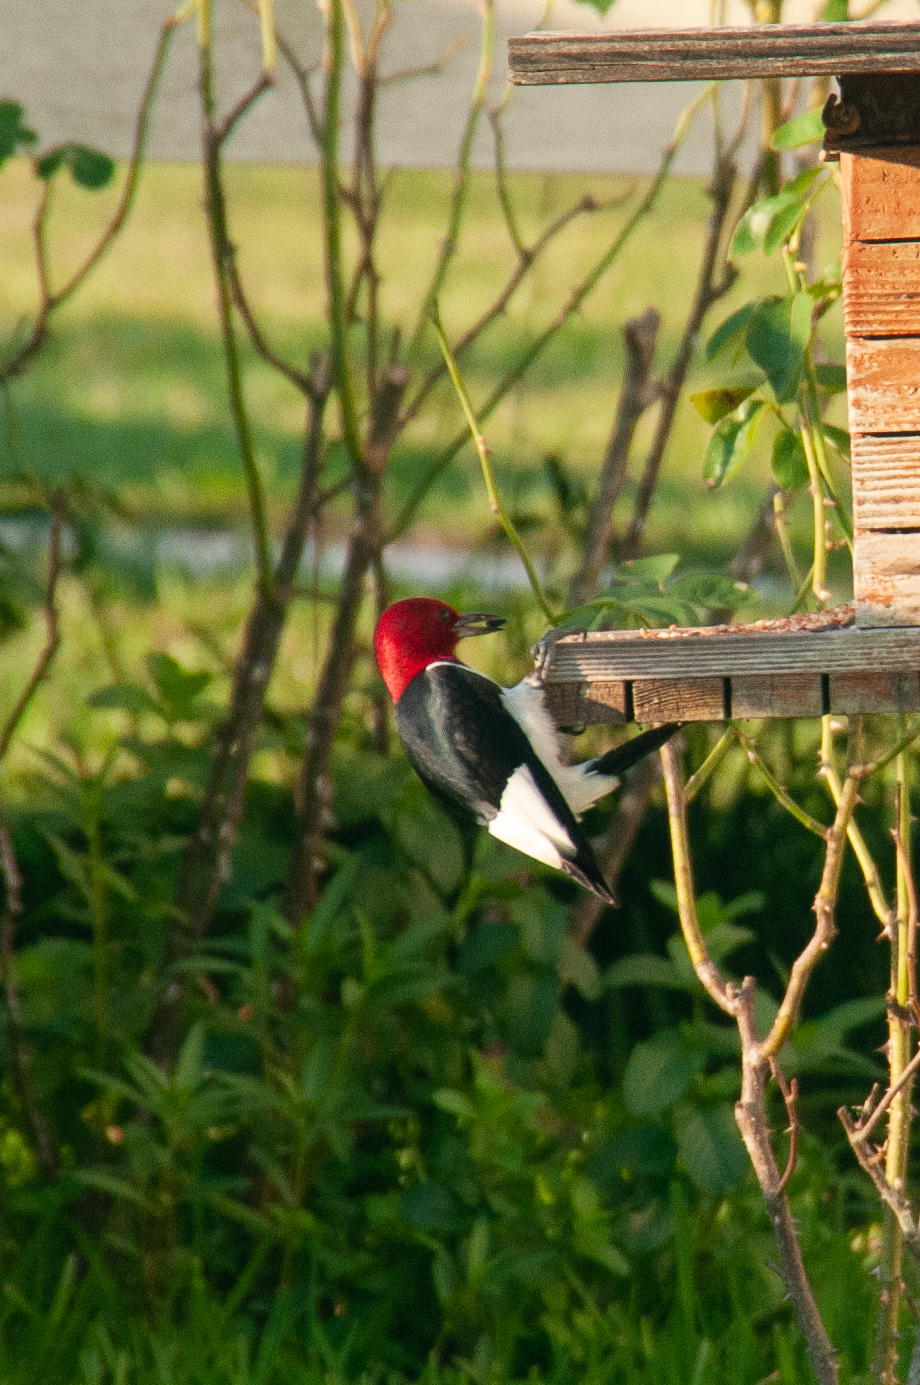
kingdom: Animalia
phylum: Chordata
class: Aves
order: Piciformes
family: Picidae
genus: Melanerpes
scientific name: Melanerpes erythrocephalus
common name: Red-headed woodpecker
